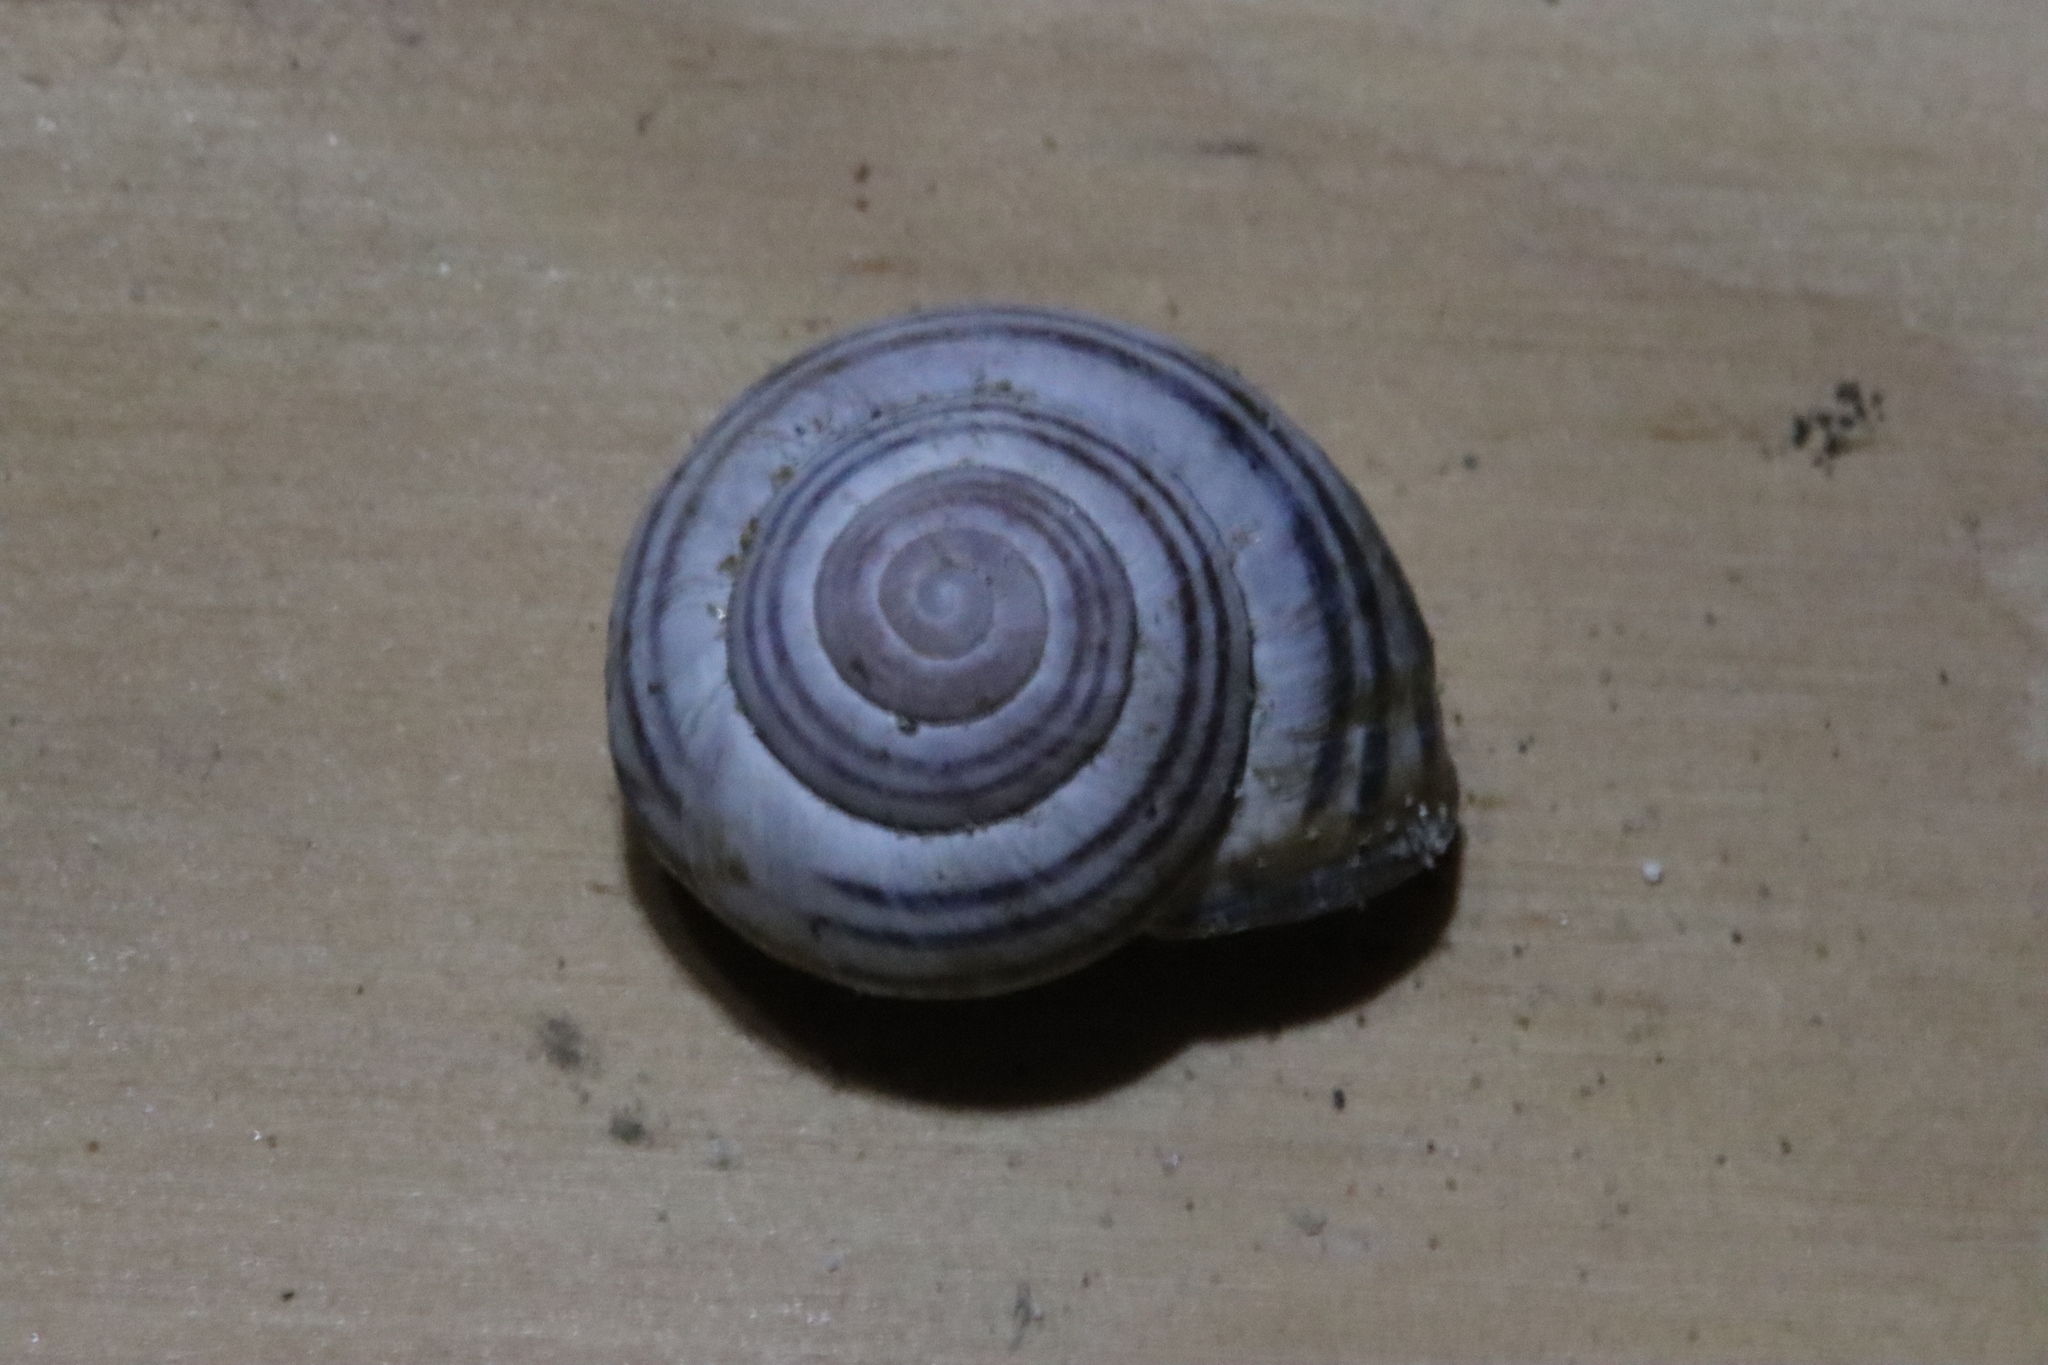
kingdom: Animalia
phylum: Mollusca
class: Gastropoda
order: Stylommatophora
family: Helicidae
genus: Cepaea
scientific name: Cepaea nemoralis
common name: Grovesnail
